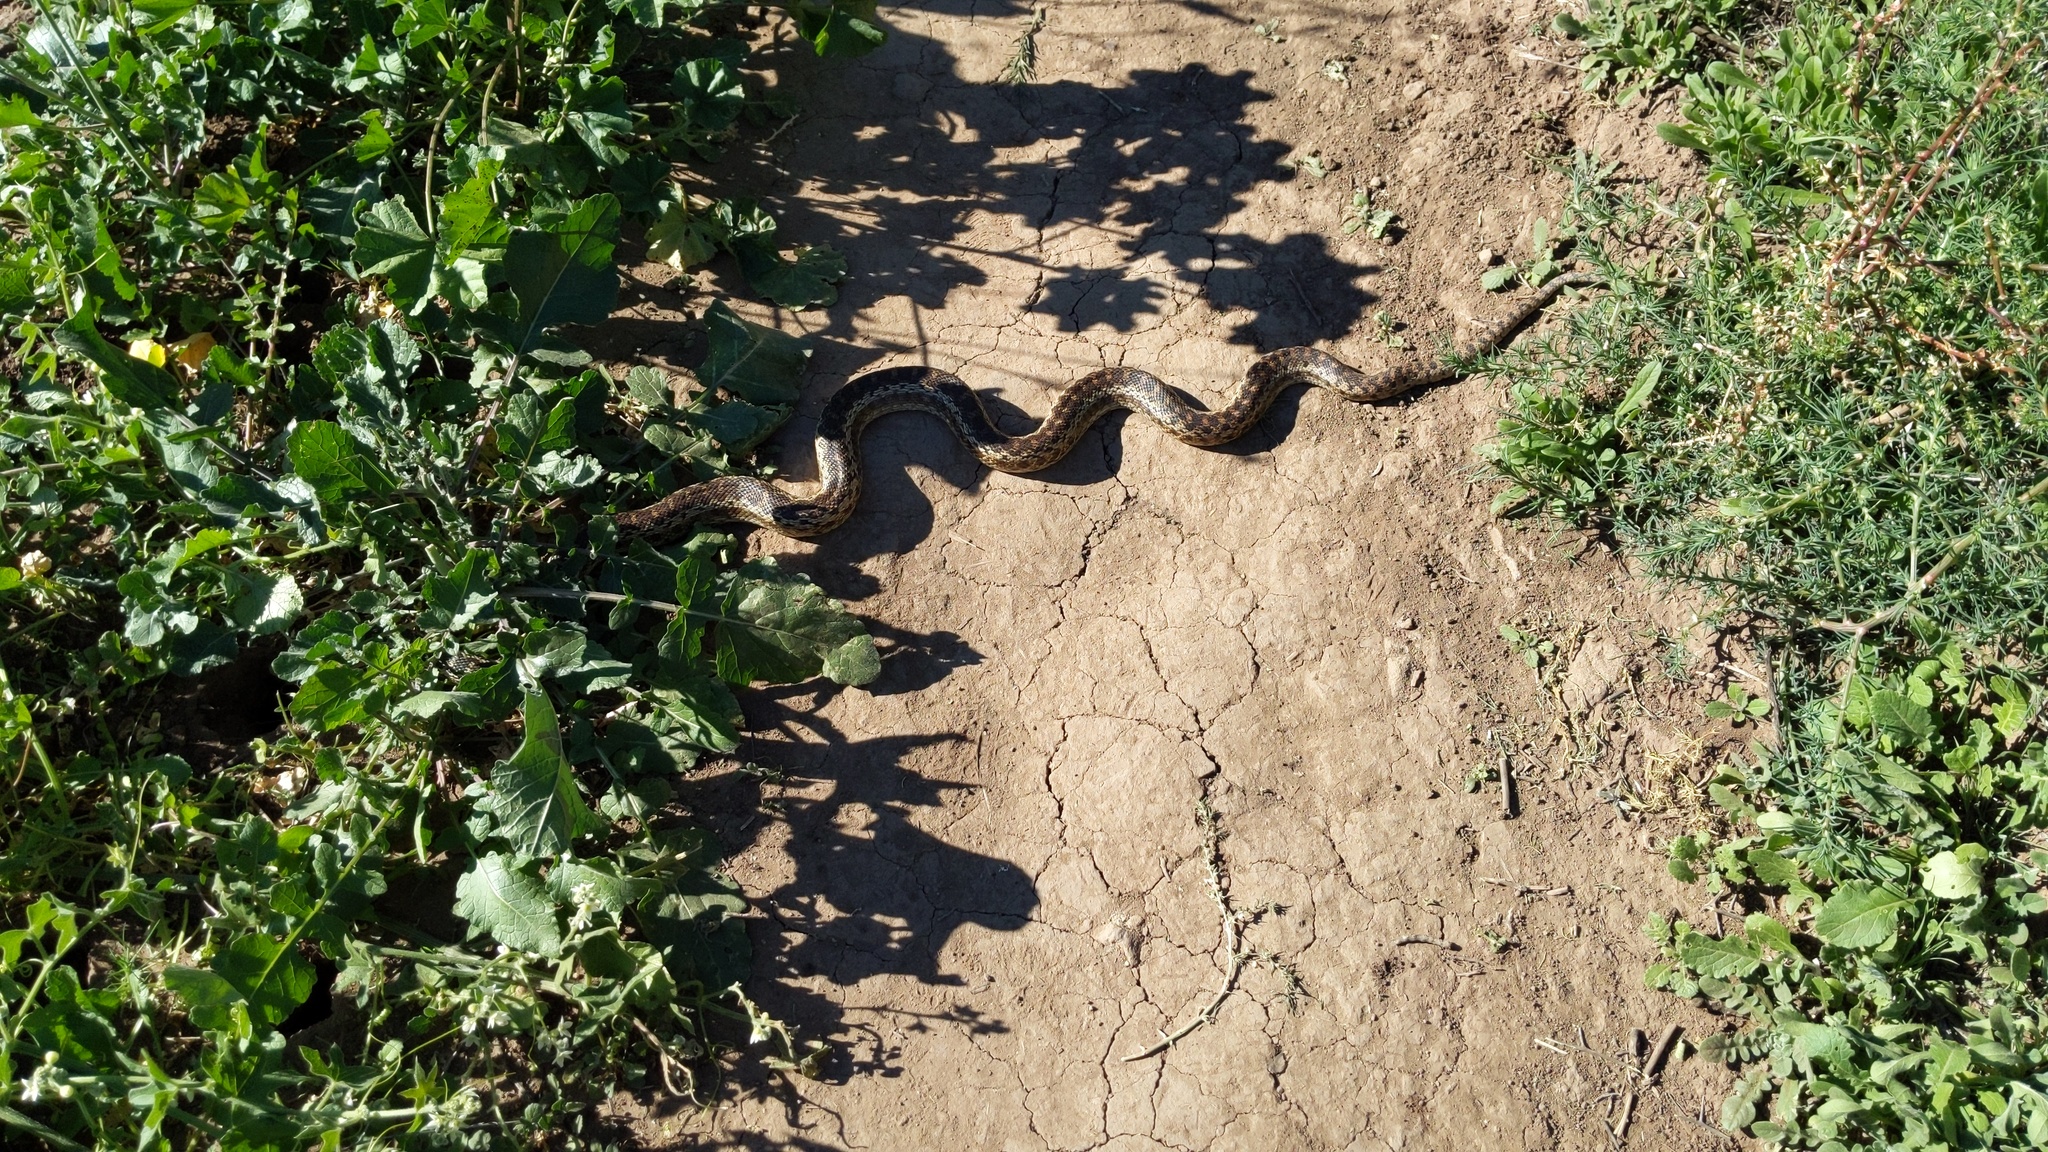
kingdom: Animalia
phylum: Chordata
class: Squamata
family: Colubridae
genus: Pituophis
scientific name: Pituophis catenifer
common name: Gopher snake
